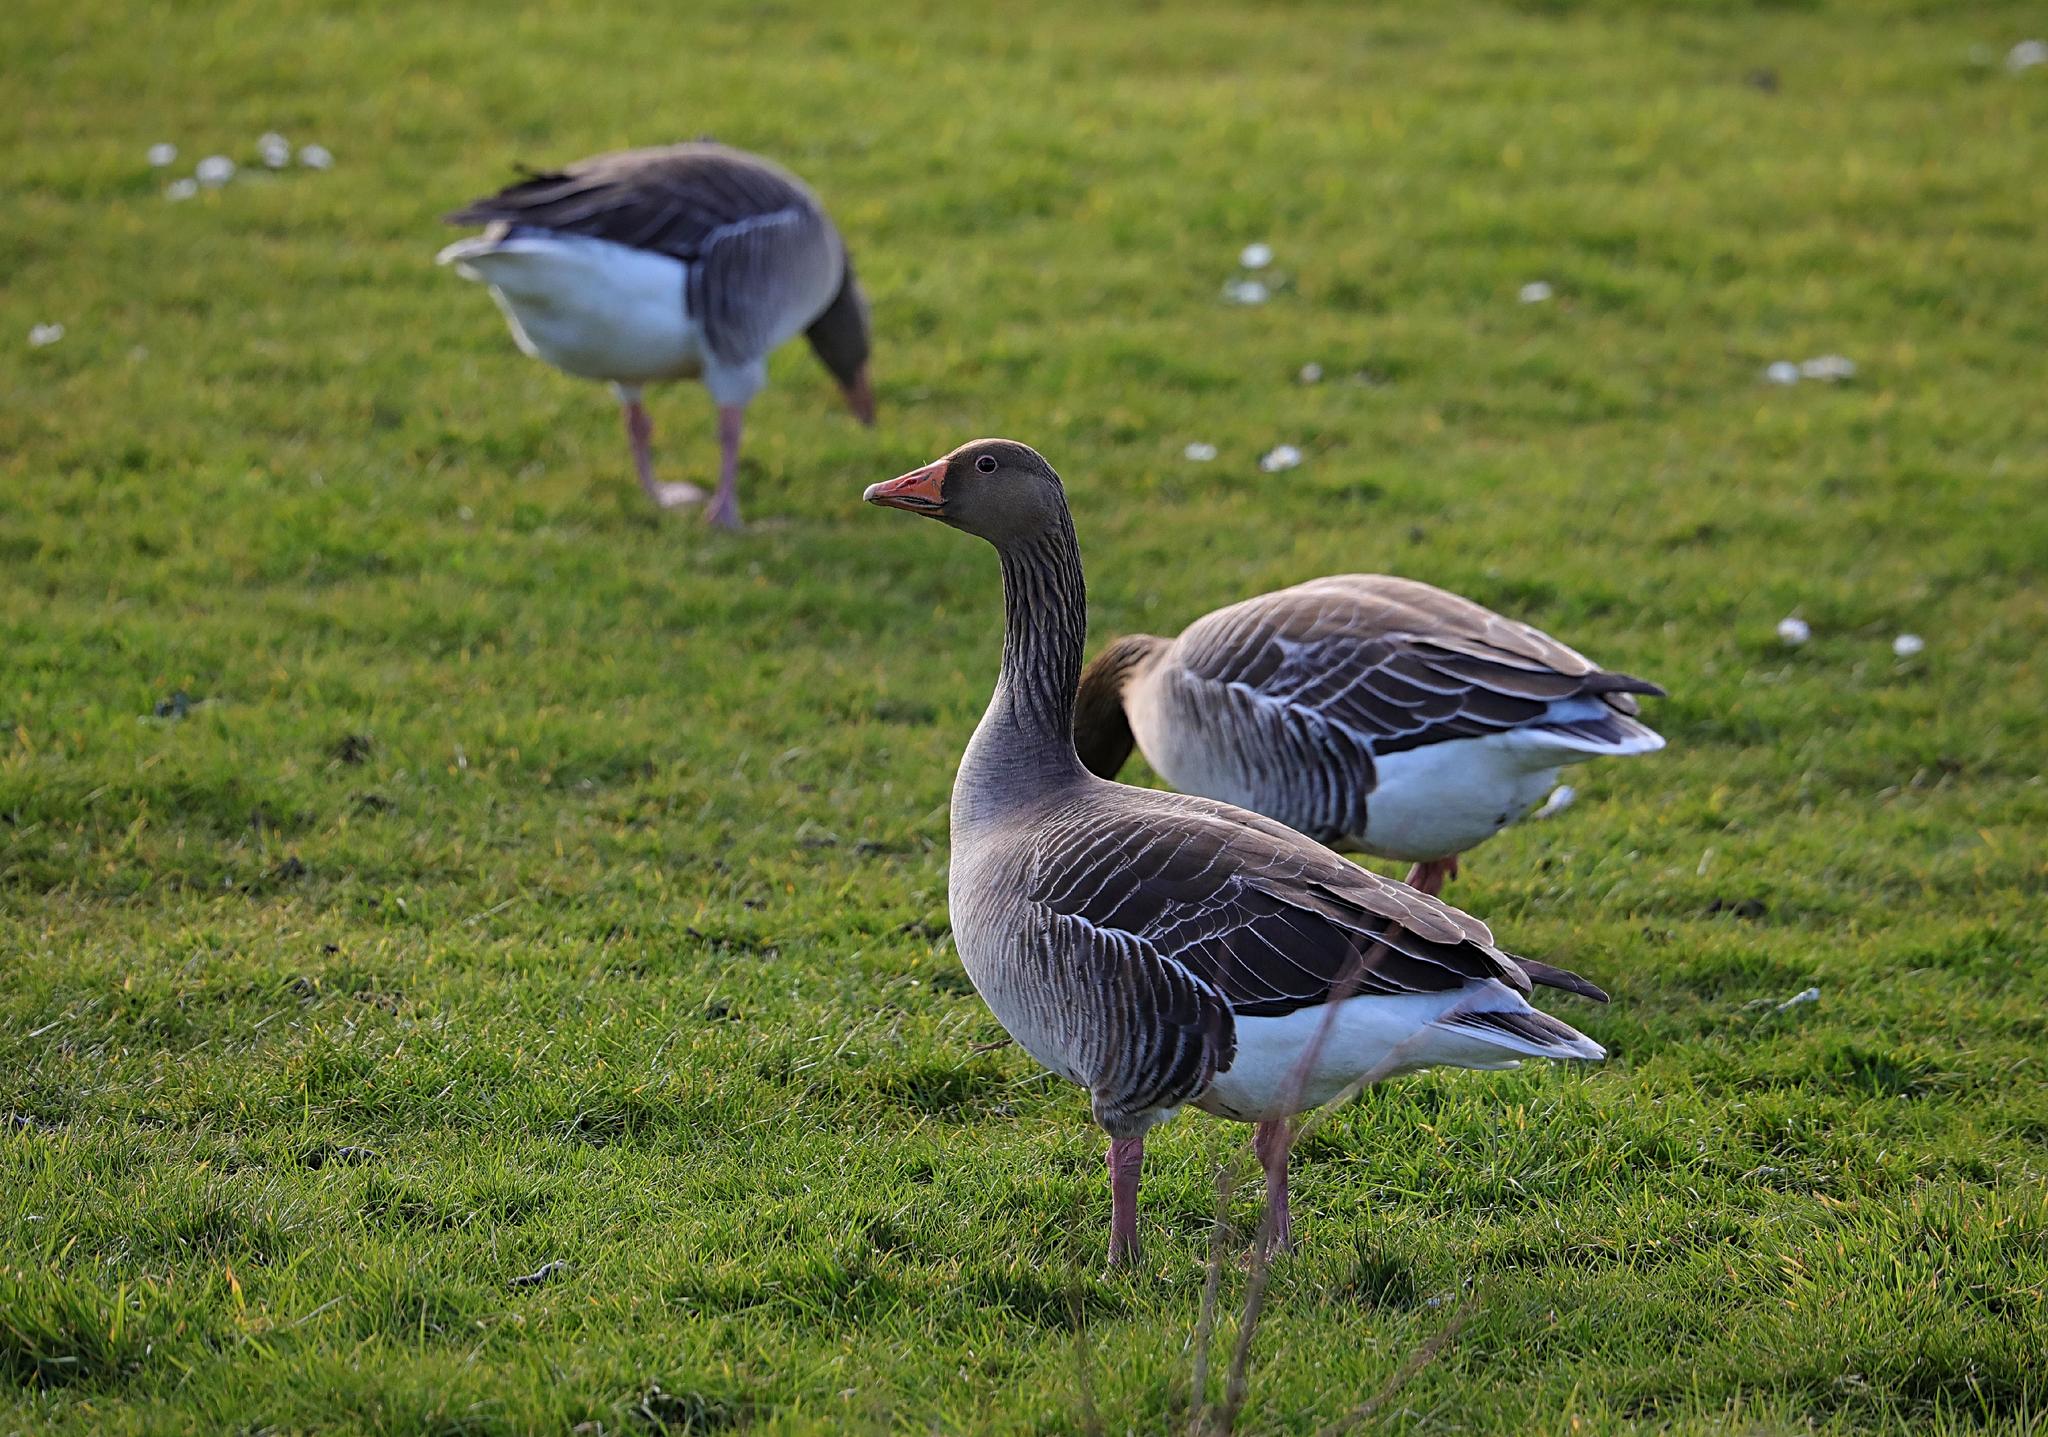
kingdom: Animalia
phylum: Chordata
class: Aves
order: Anseriformes
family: Anatidae
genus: Anser
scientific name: Anser anser
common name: Greylag goose
